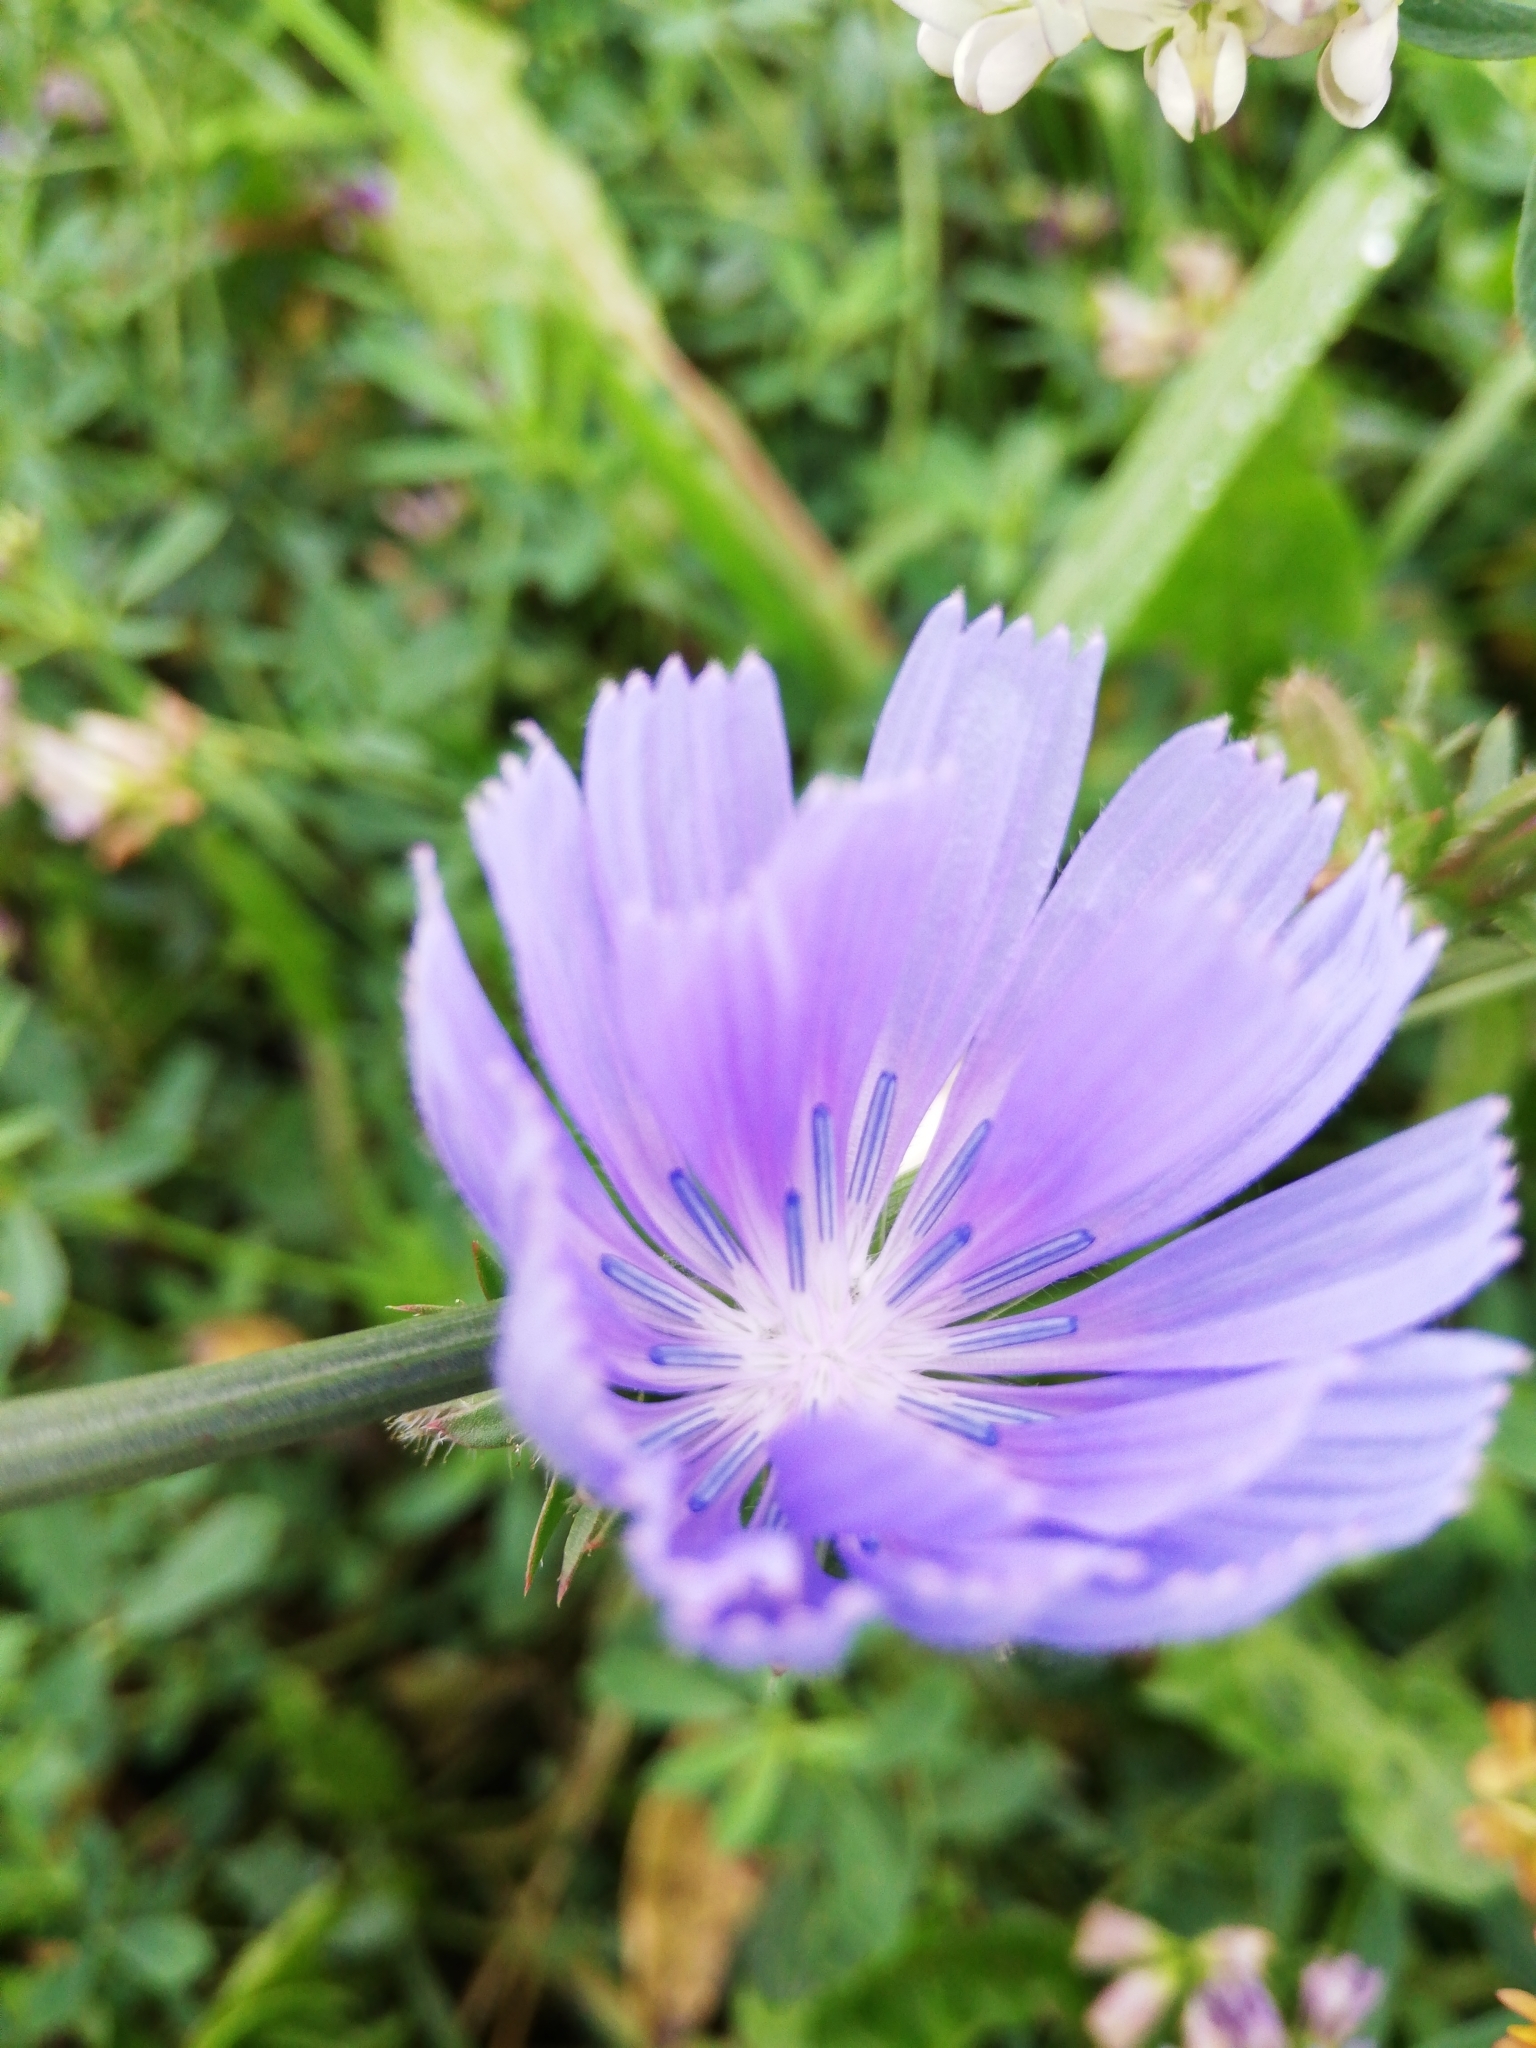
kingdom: Plantae
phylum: Tracheophyta
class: Magnoliopsida
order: Asterales
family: Asteraceae
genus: Cichorium
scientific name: Cichorium intybus
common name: Chicory
